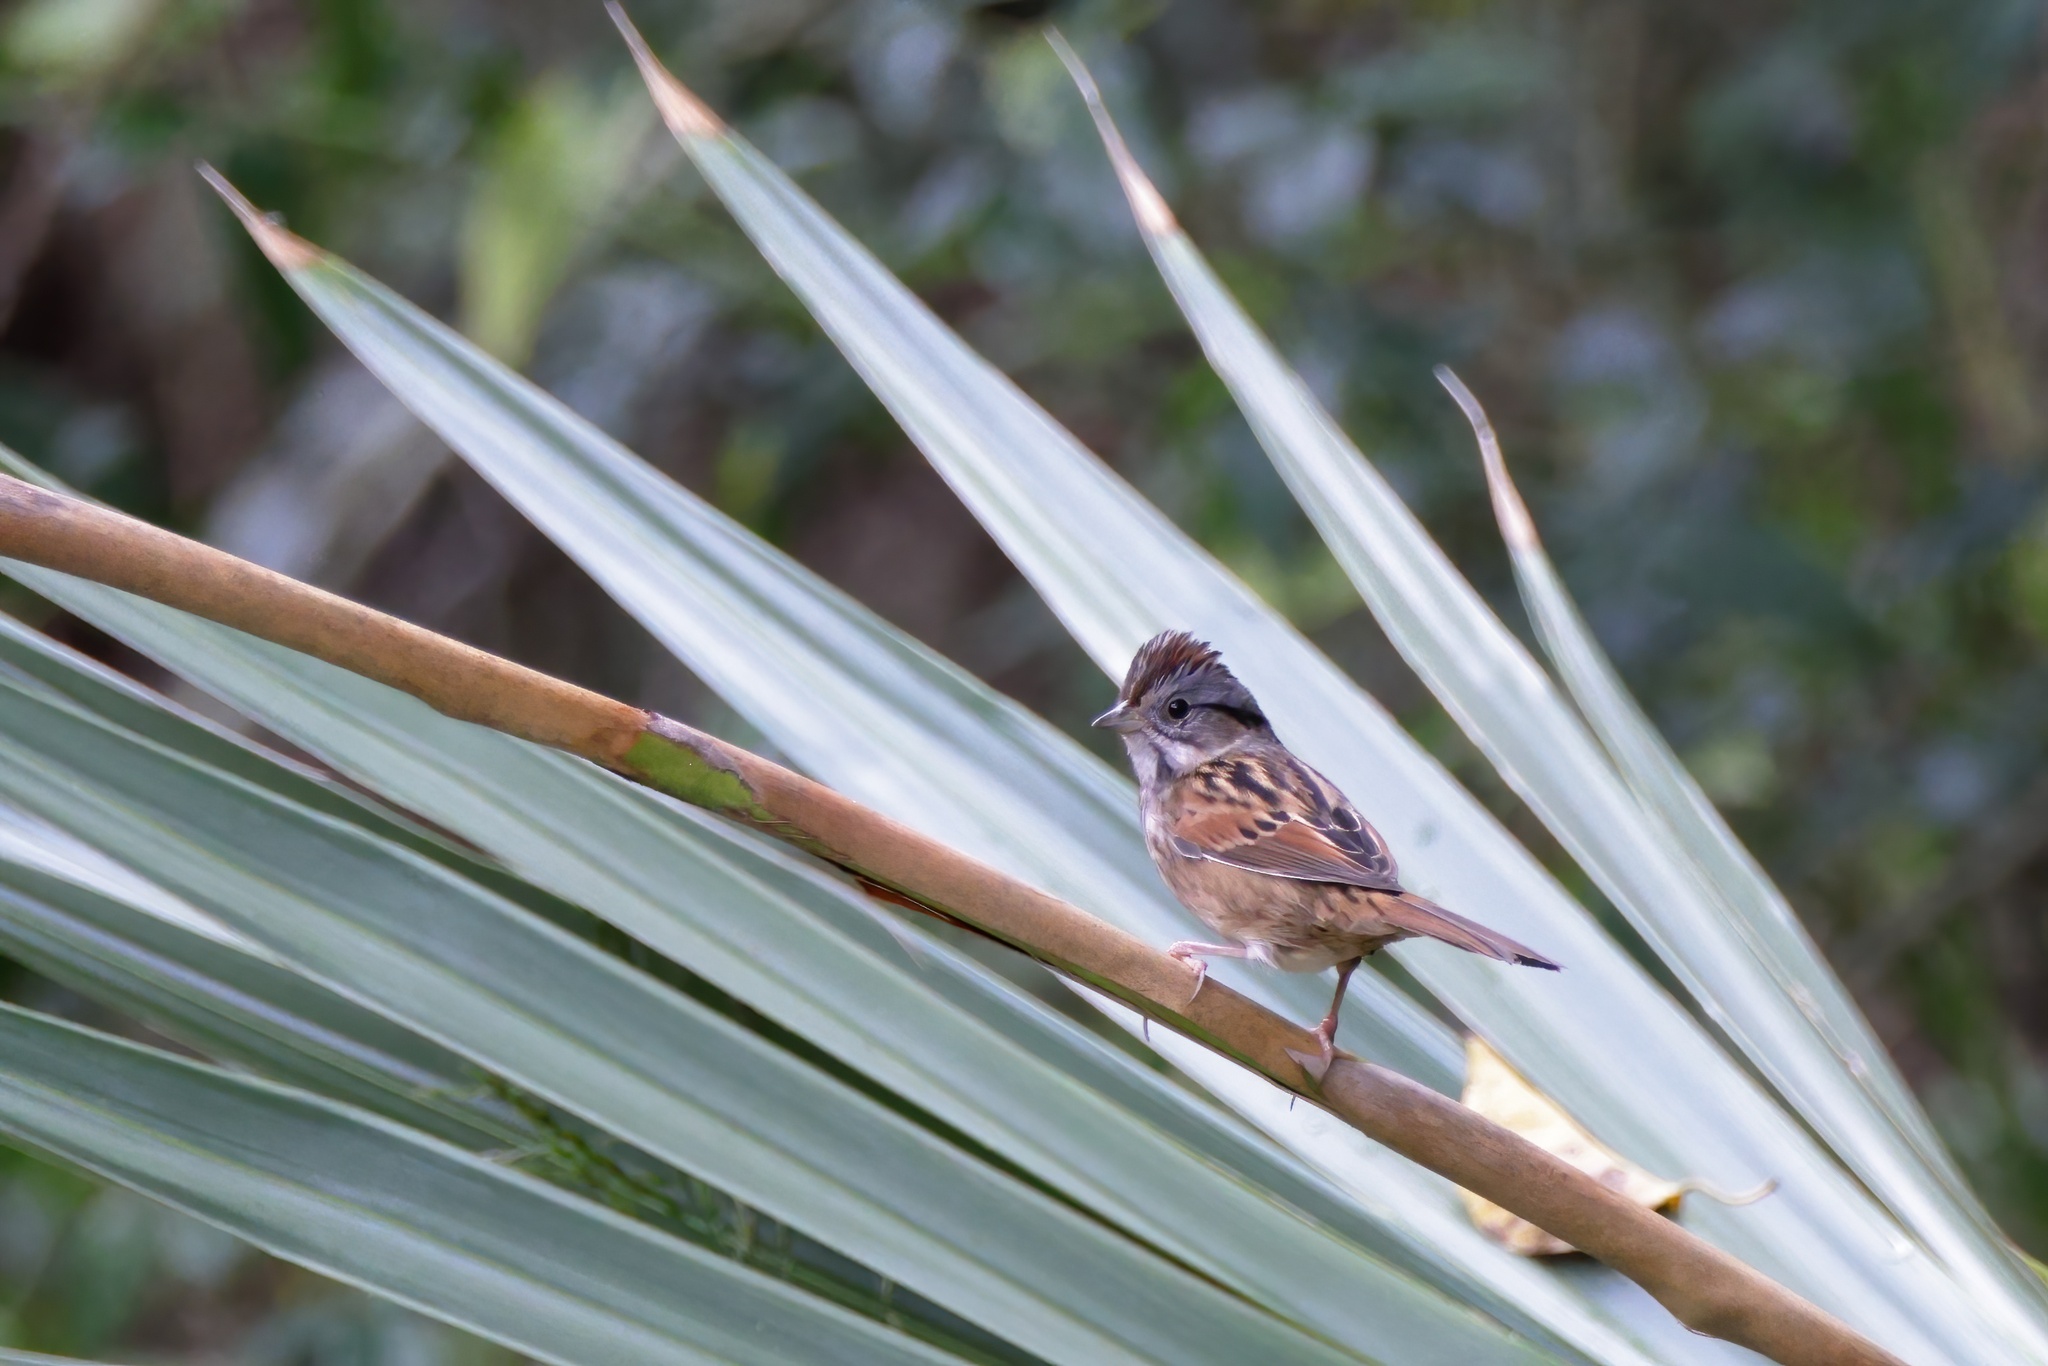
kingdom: Animalia
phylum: Chordata
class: Aves
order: Passeriformes
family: Passerellidae
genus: Melospiza
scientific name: Melospiza georgiana
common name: Swamp sparrow
